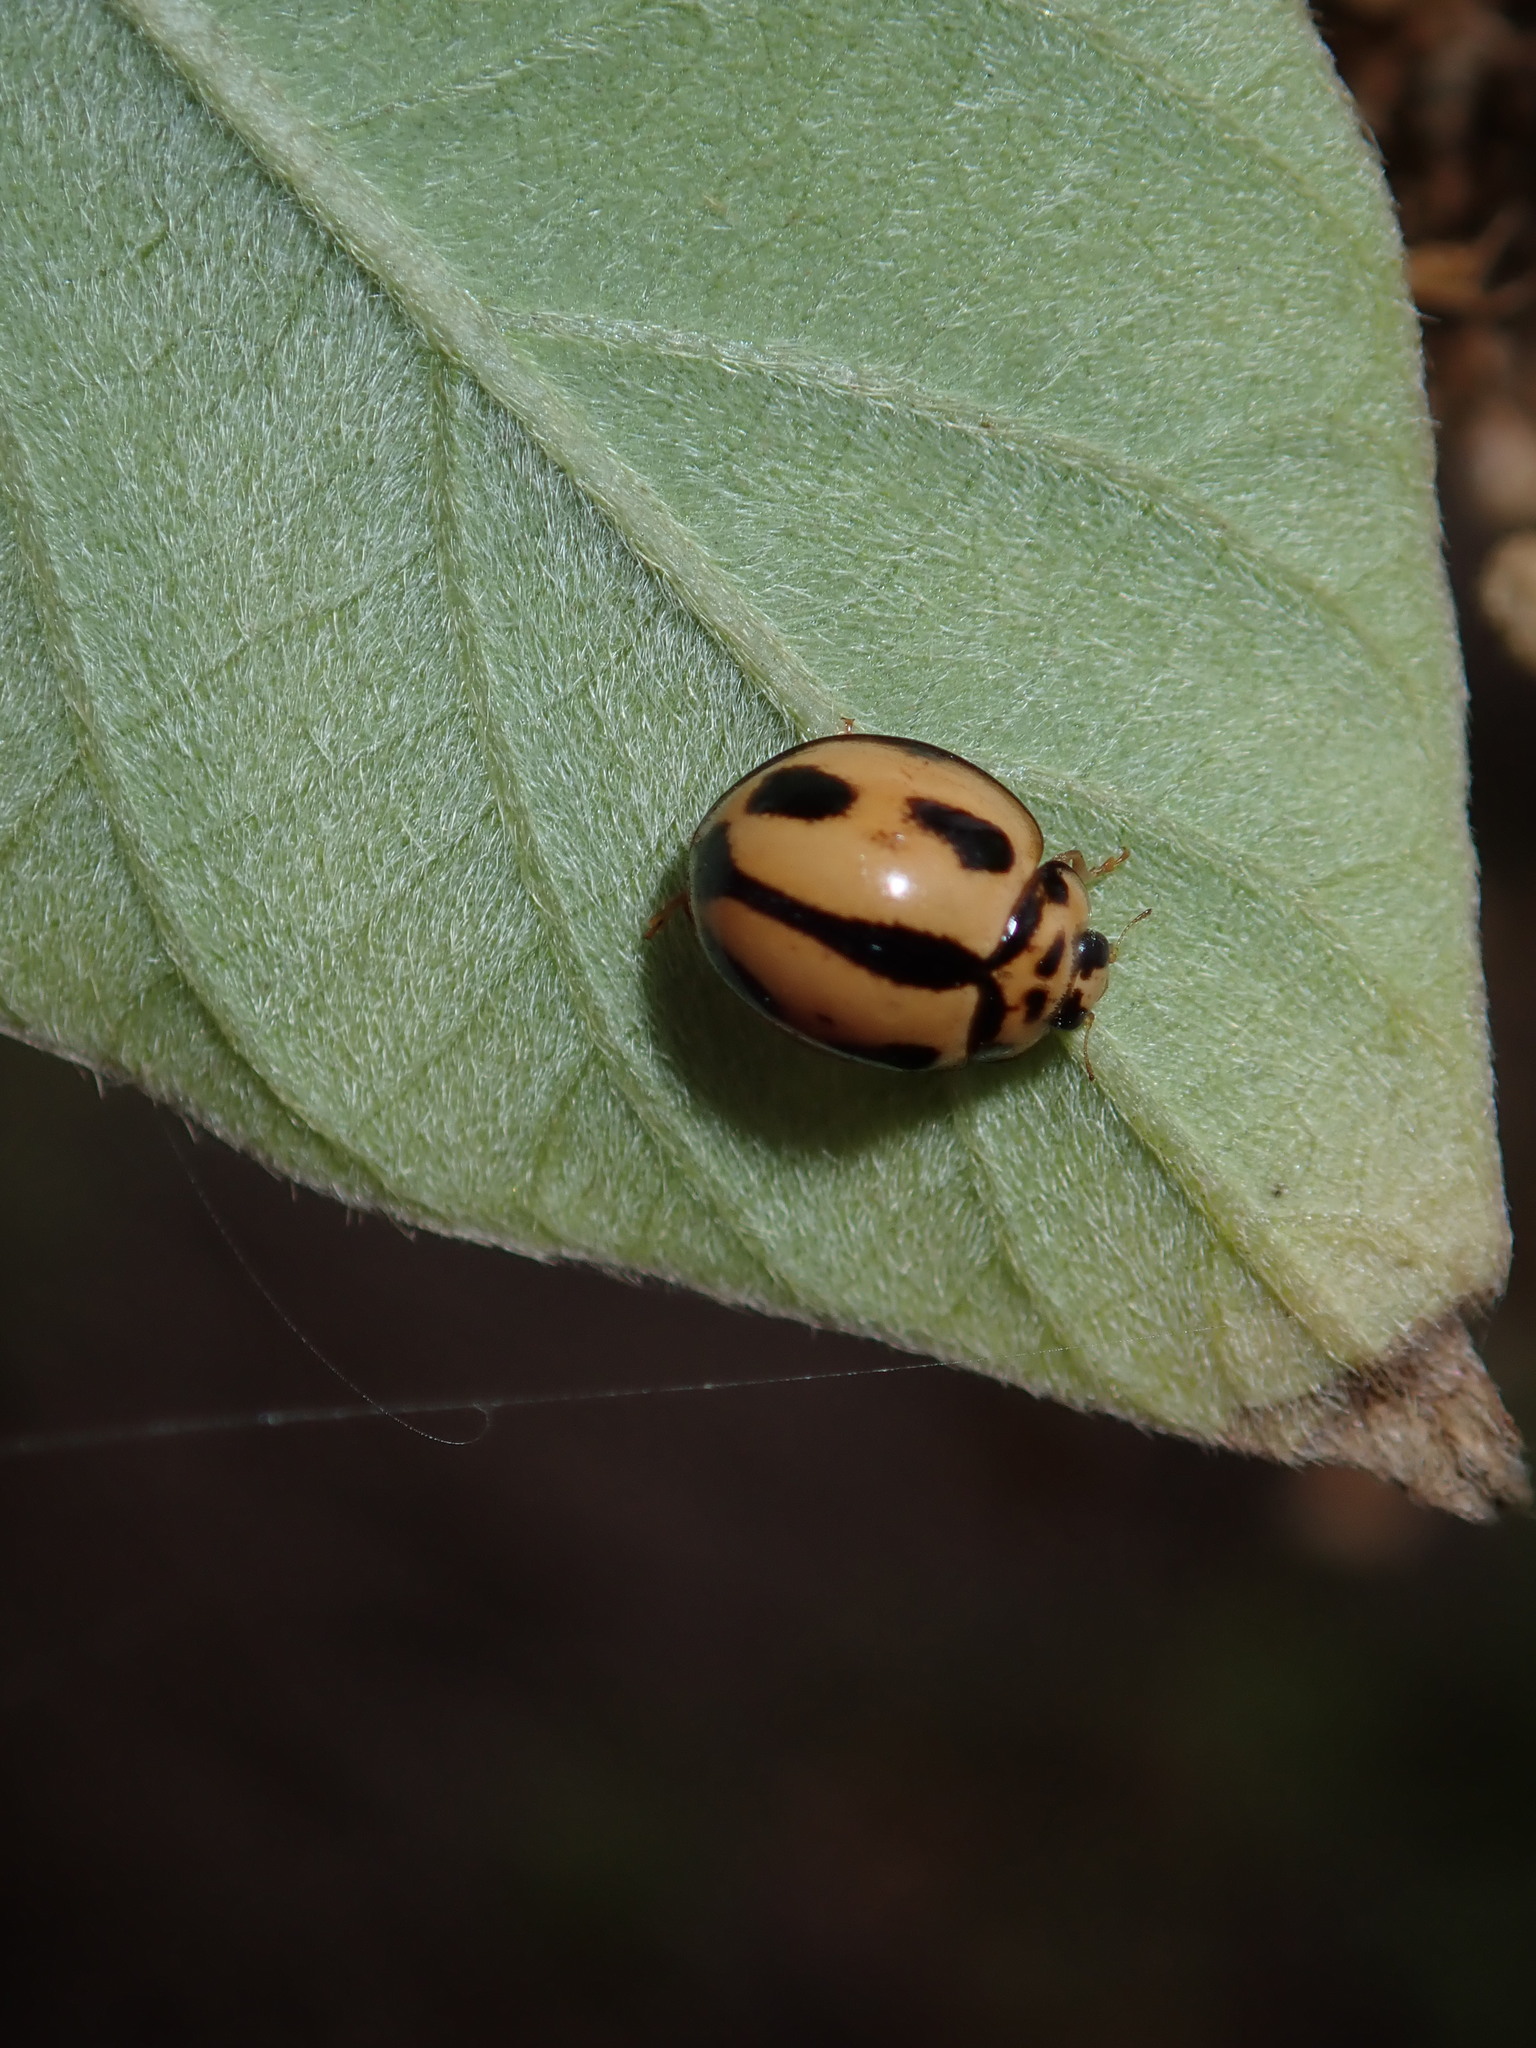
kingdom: Animalia
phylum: Arthropoda
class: Insecta
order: Coleoptera
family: Coccinellidae
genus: Coelophora
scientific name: Coelophora inaequalis
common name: Common australian lady beetle
